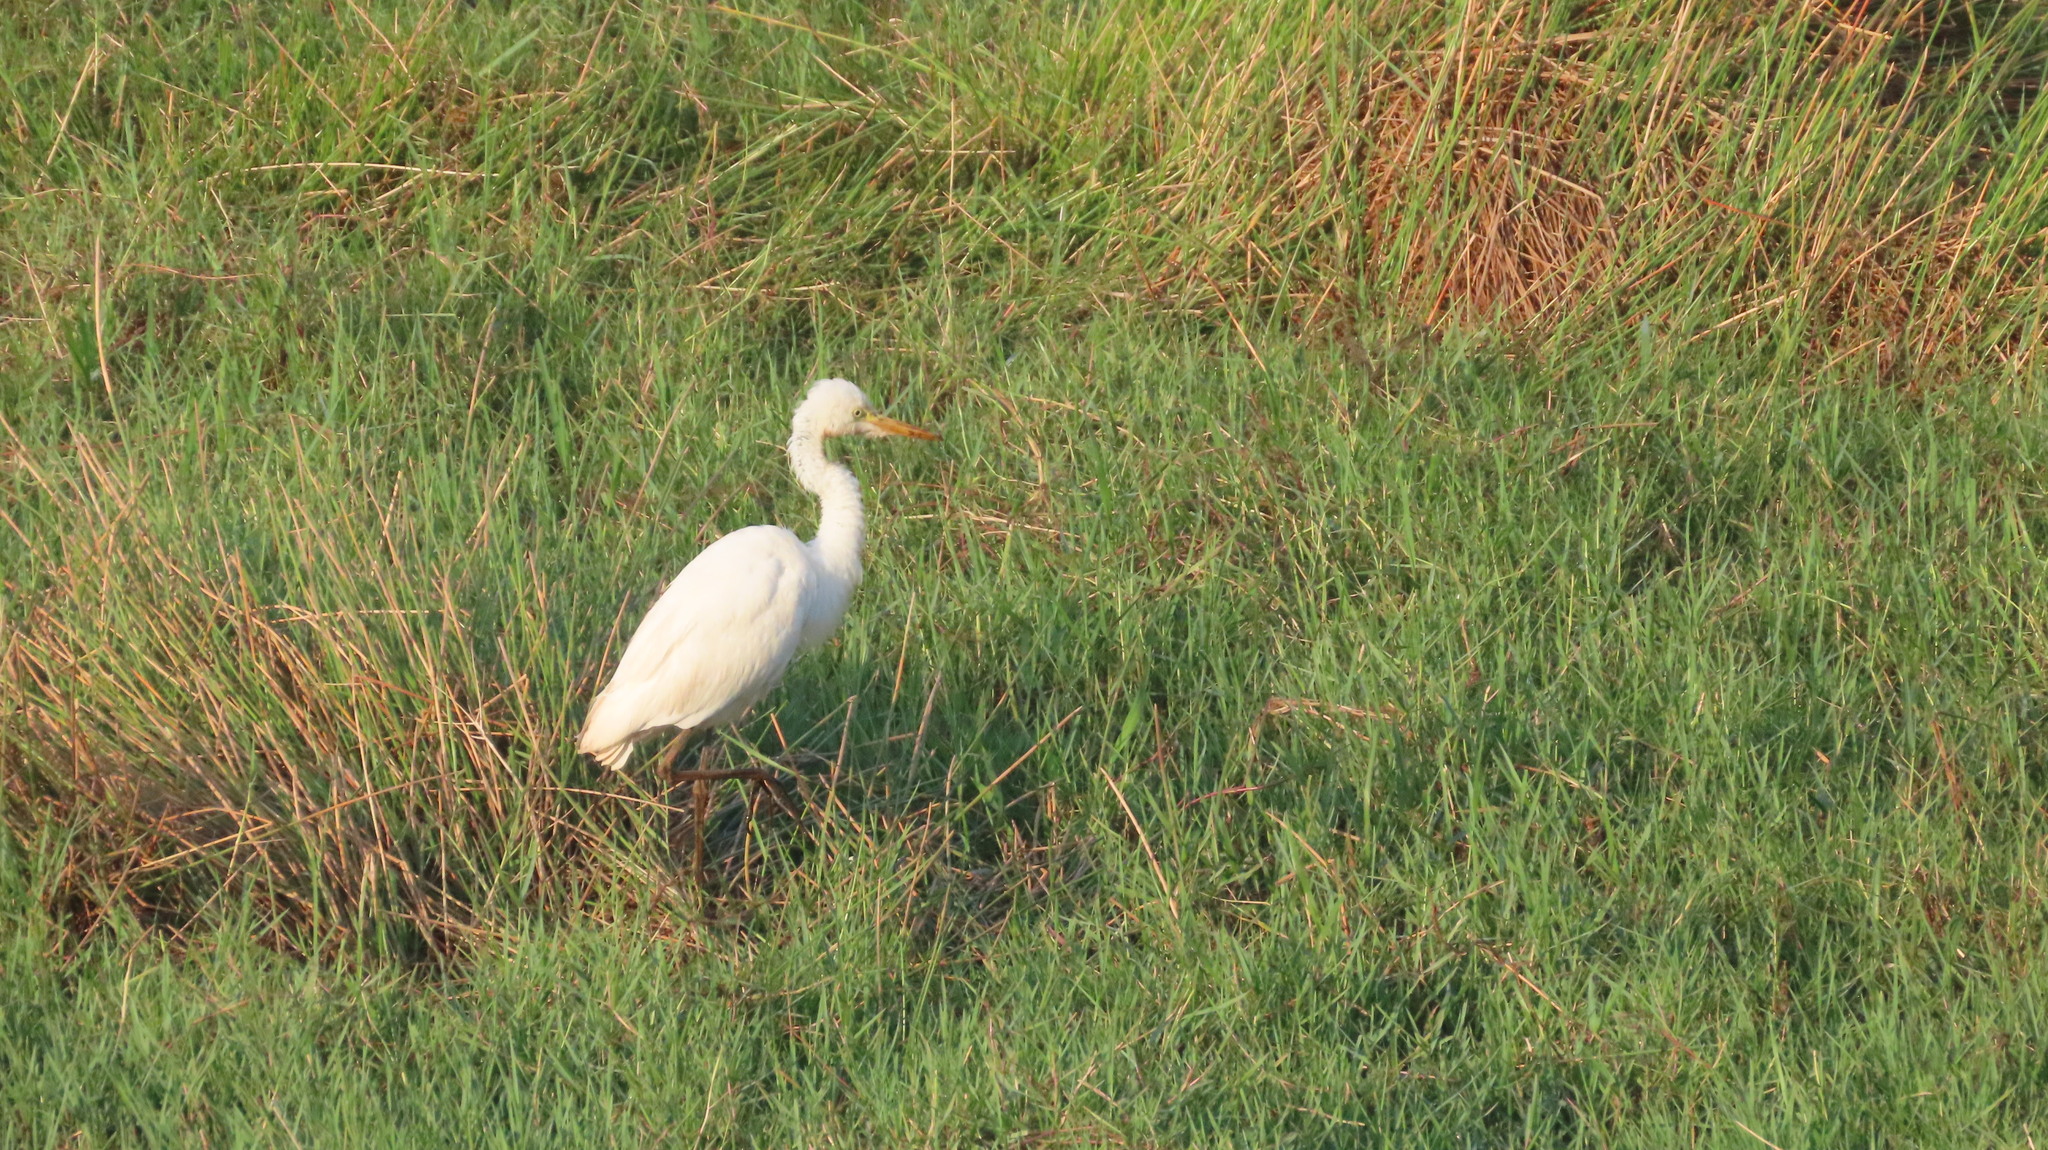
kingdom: Animalia
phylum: Chordata
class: Aves
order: Pelecaniformes
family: Ardeidae
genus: Egretta
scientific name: Egretta intermedia
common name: Intermediate egret
